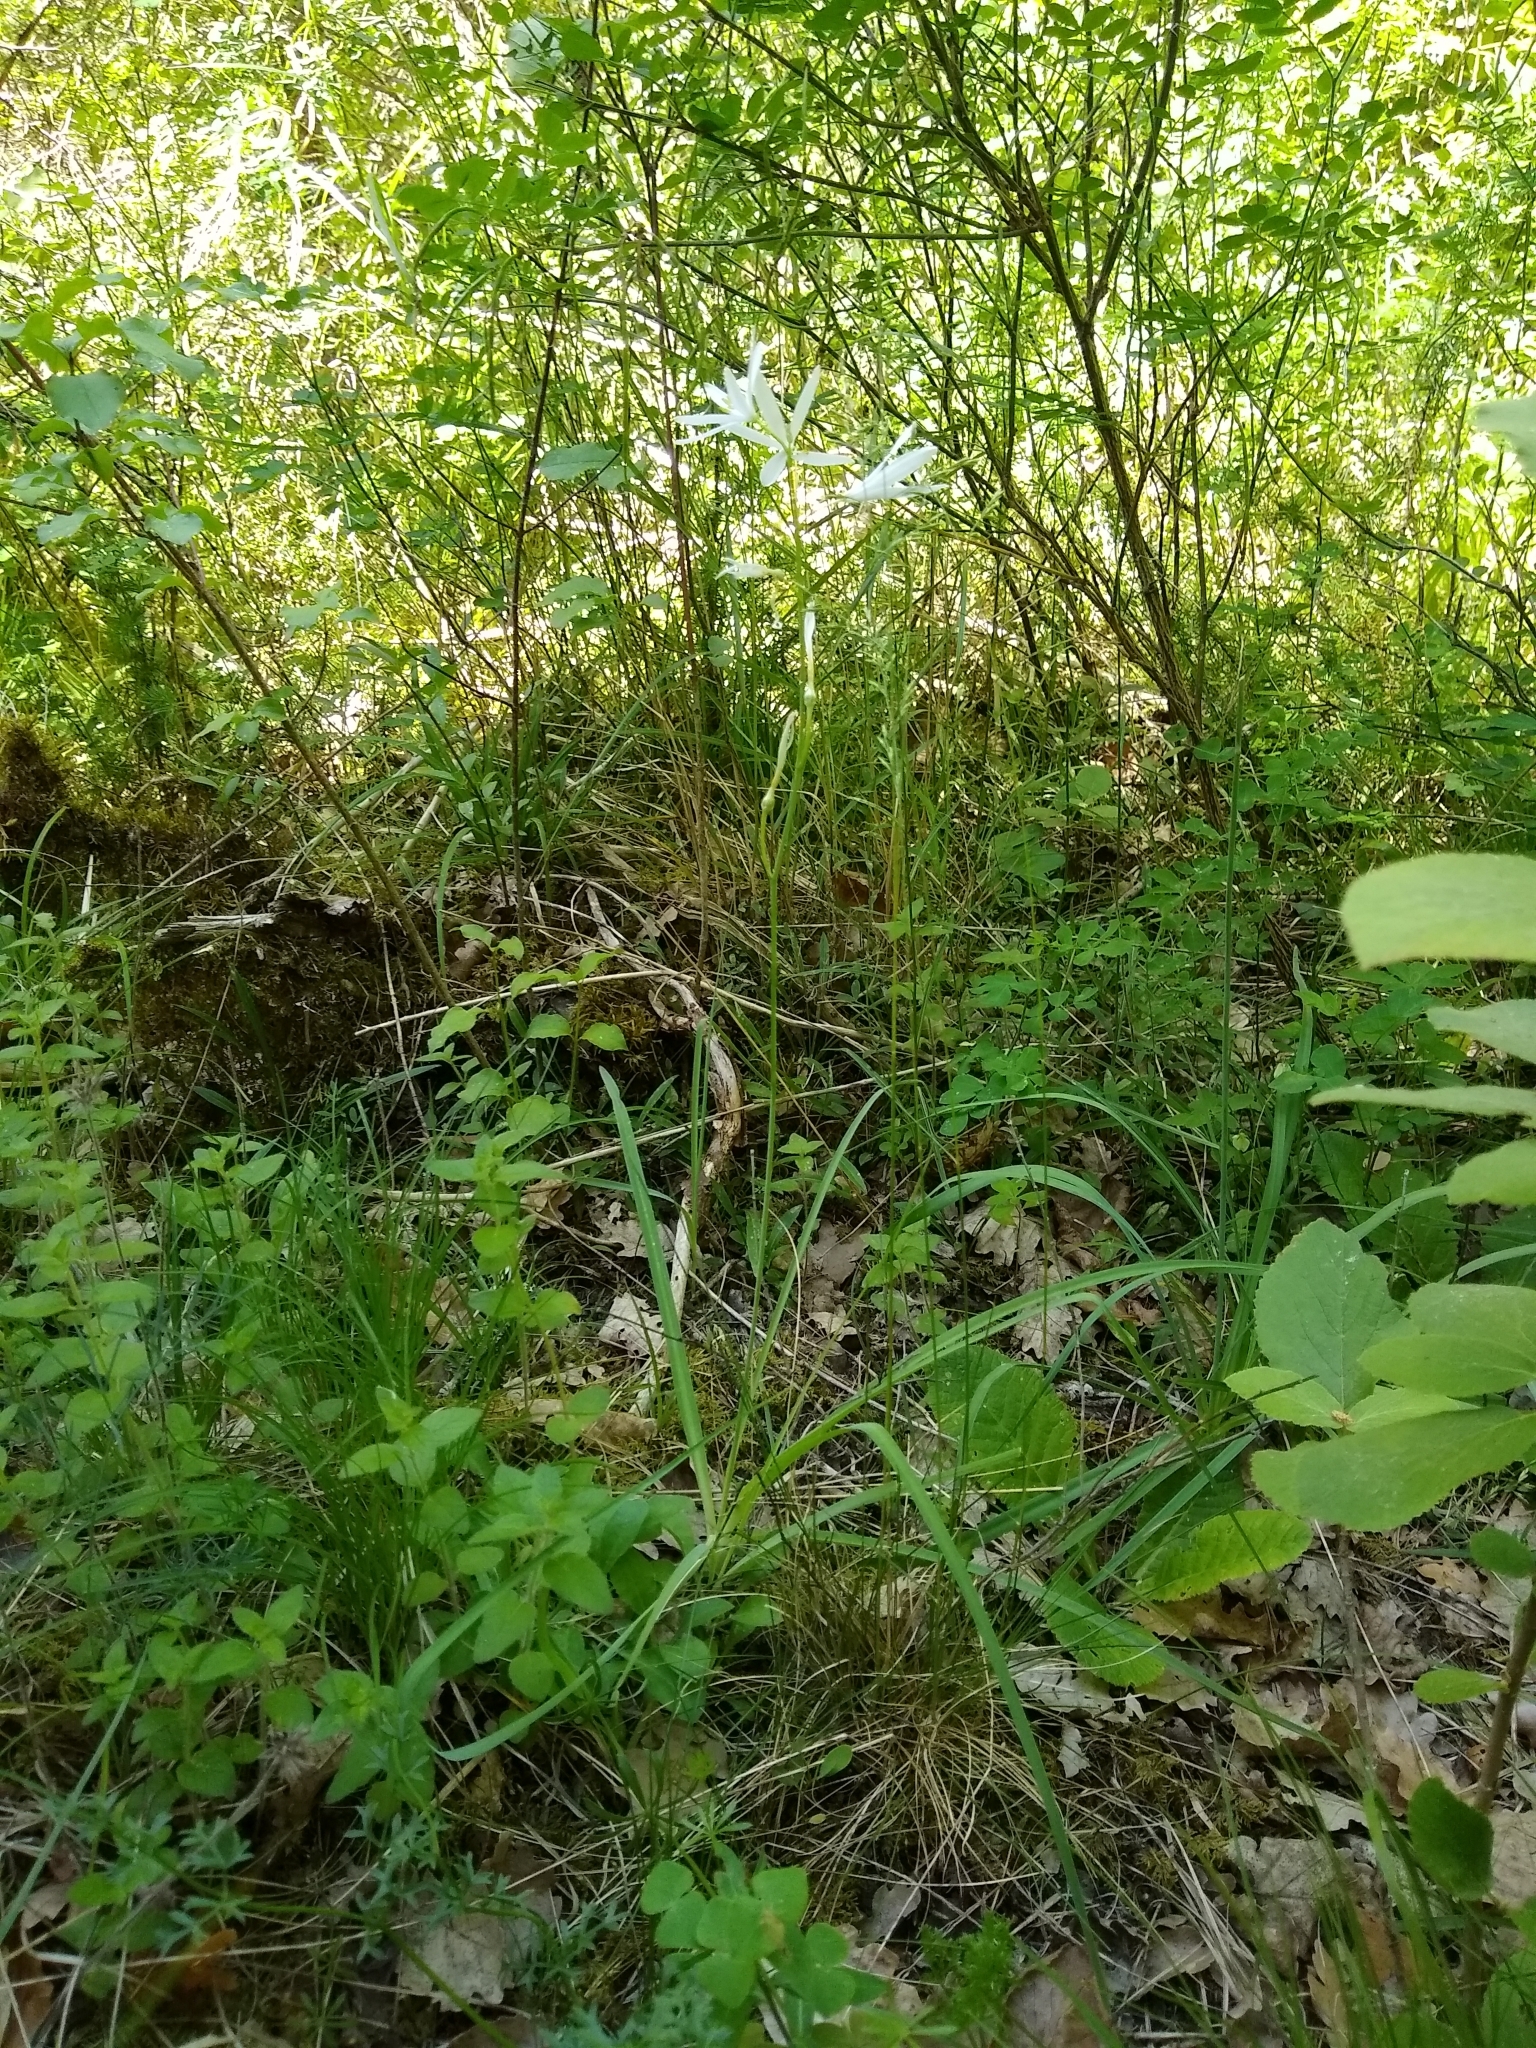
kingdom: Plantae
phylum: Tracheophyta
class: Liliopsida
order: Asparagales
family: Asparagaceae
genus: Anthericum
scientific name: Anthericum liliago
